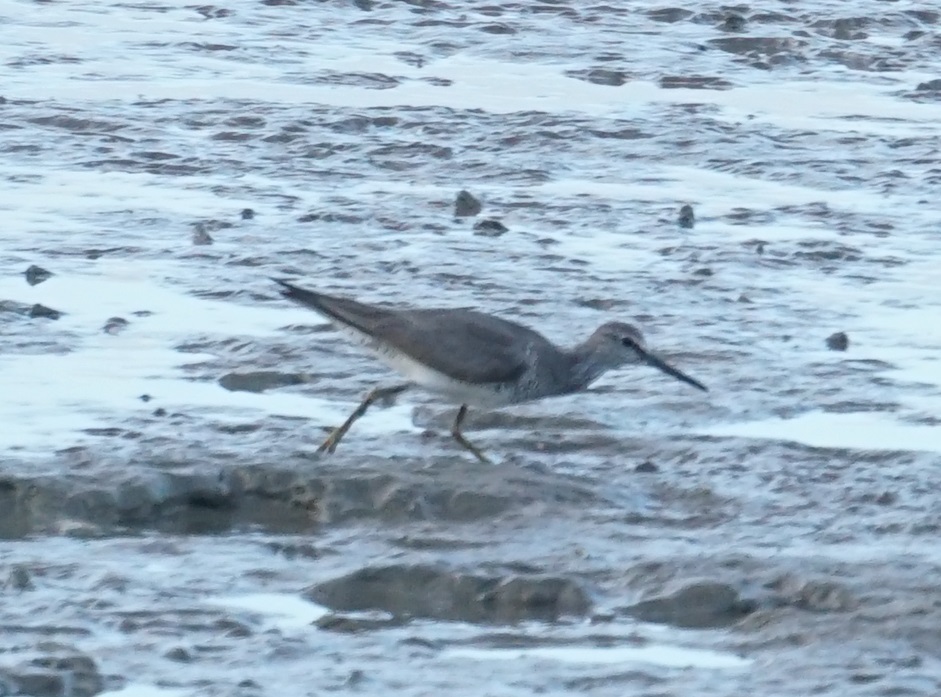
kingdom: Animalia
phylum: Chordata
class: Aves
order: Charadriiformes
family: Scolopacidae
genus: Tringa
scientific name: Tringa brevipes
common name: Grey-tailed tattler
